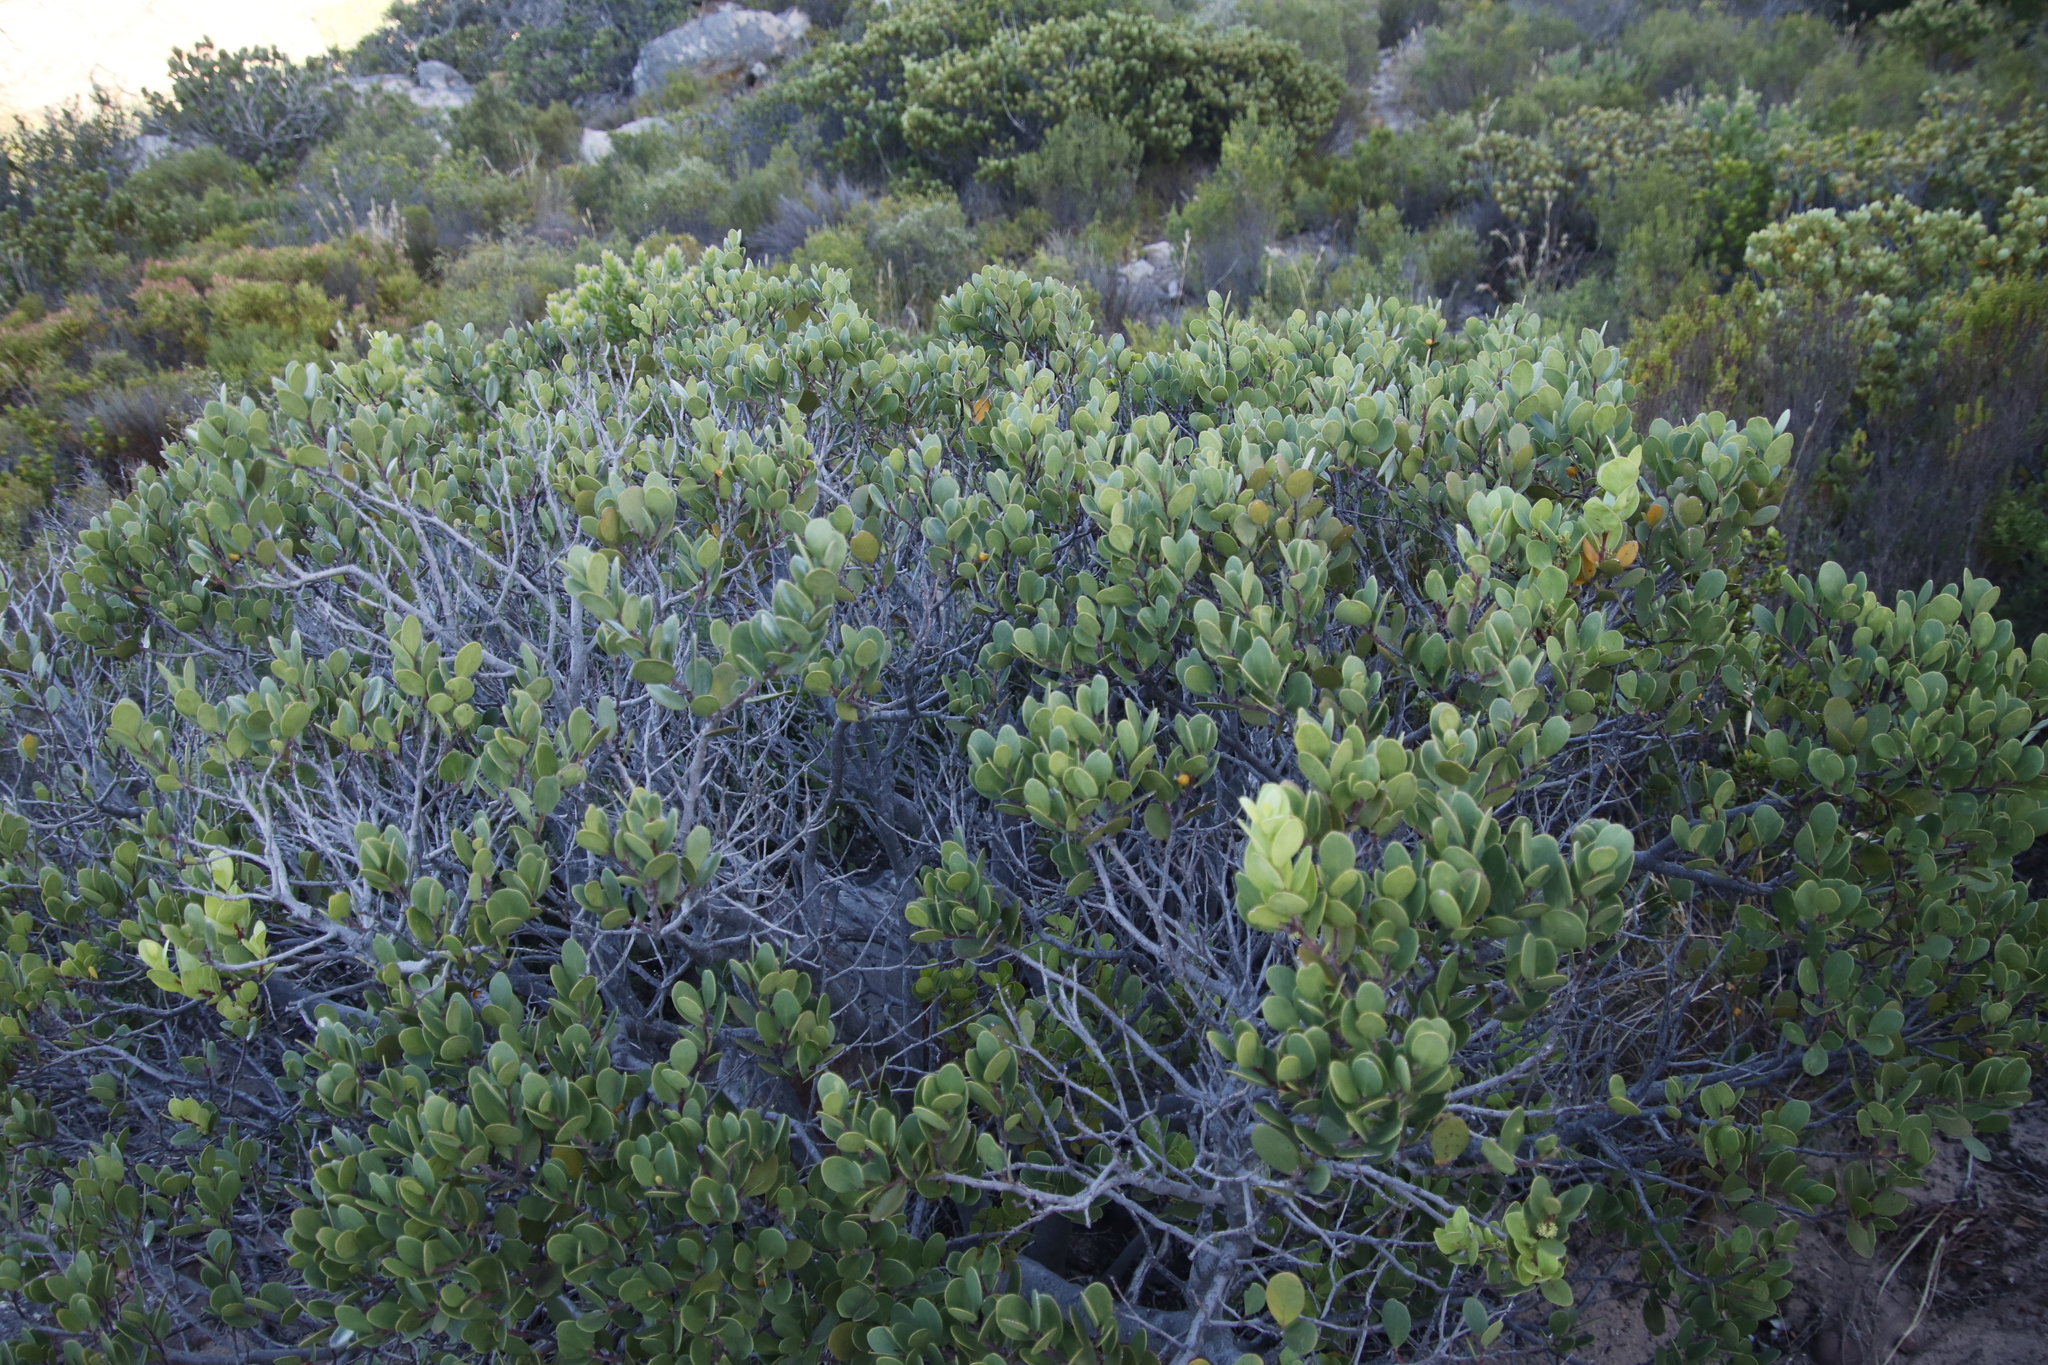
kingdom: Plantae
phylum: Tracheophyta
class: Magnoliopsida
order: Celastrales
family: Celastraceae
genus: Pterocelastrus
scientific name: Pterocelastrus tricuspidatus
